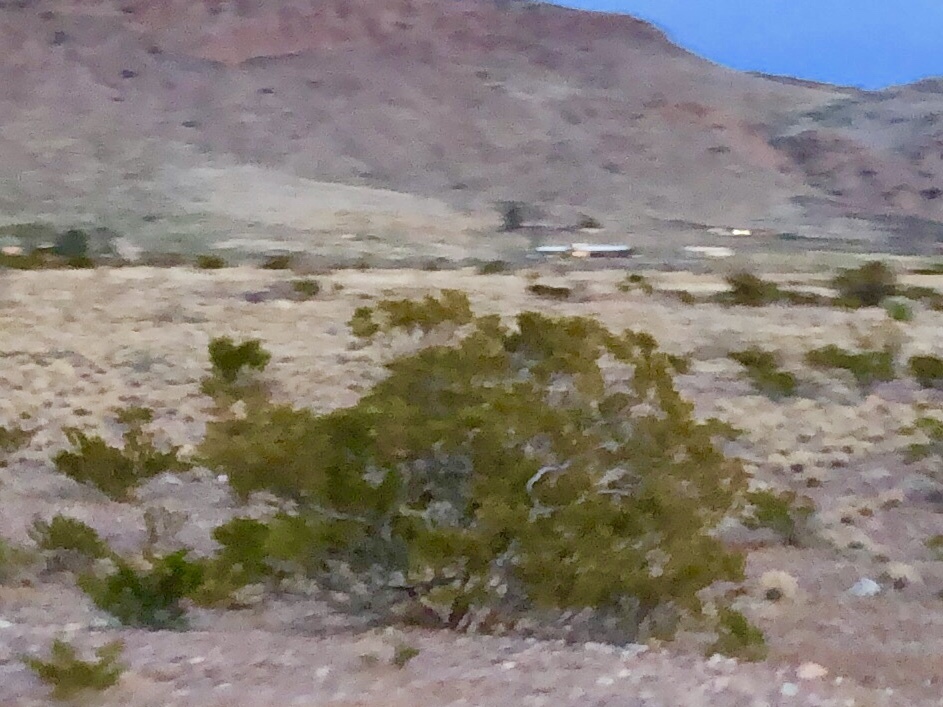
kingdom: Plantae
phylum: Tracheophyta
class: Magnoliopsida
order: Zygophyllales
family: Zygophyllaceae
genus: Larrea
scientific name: Larrea tridentata
